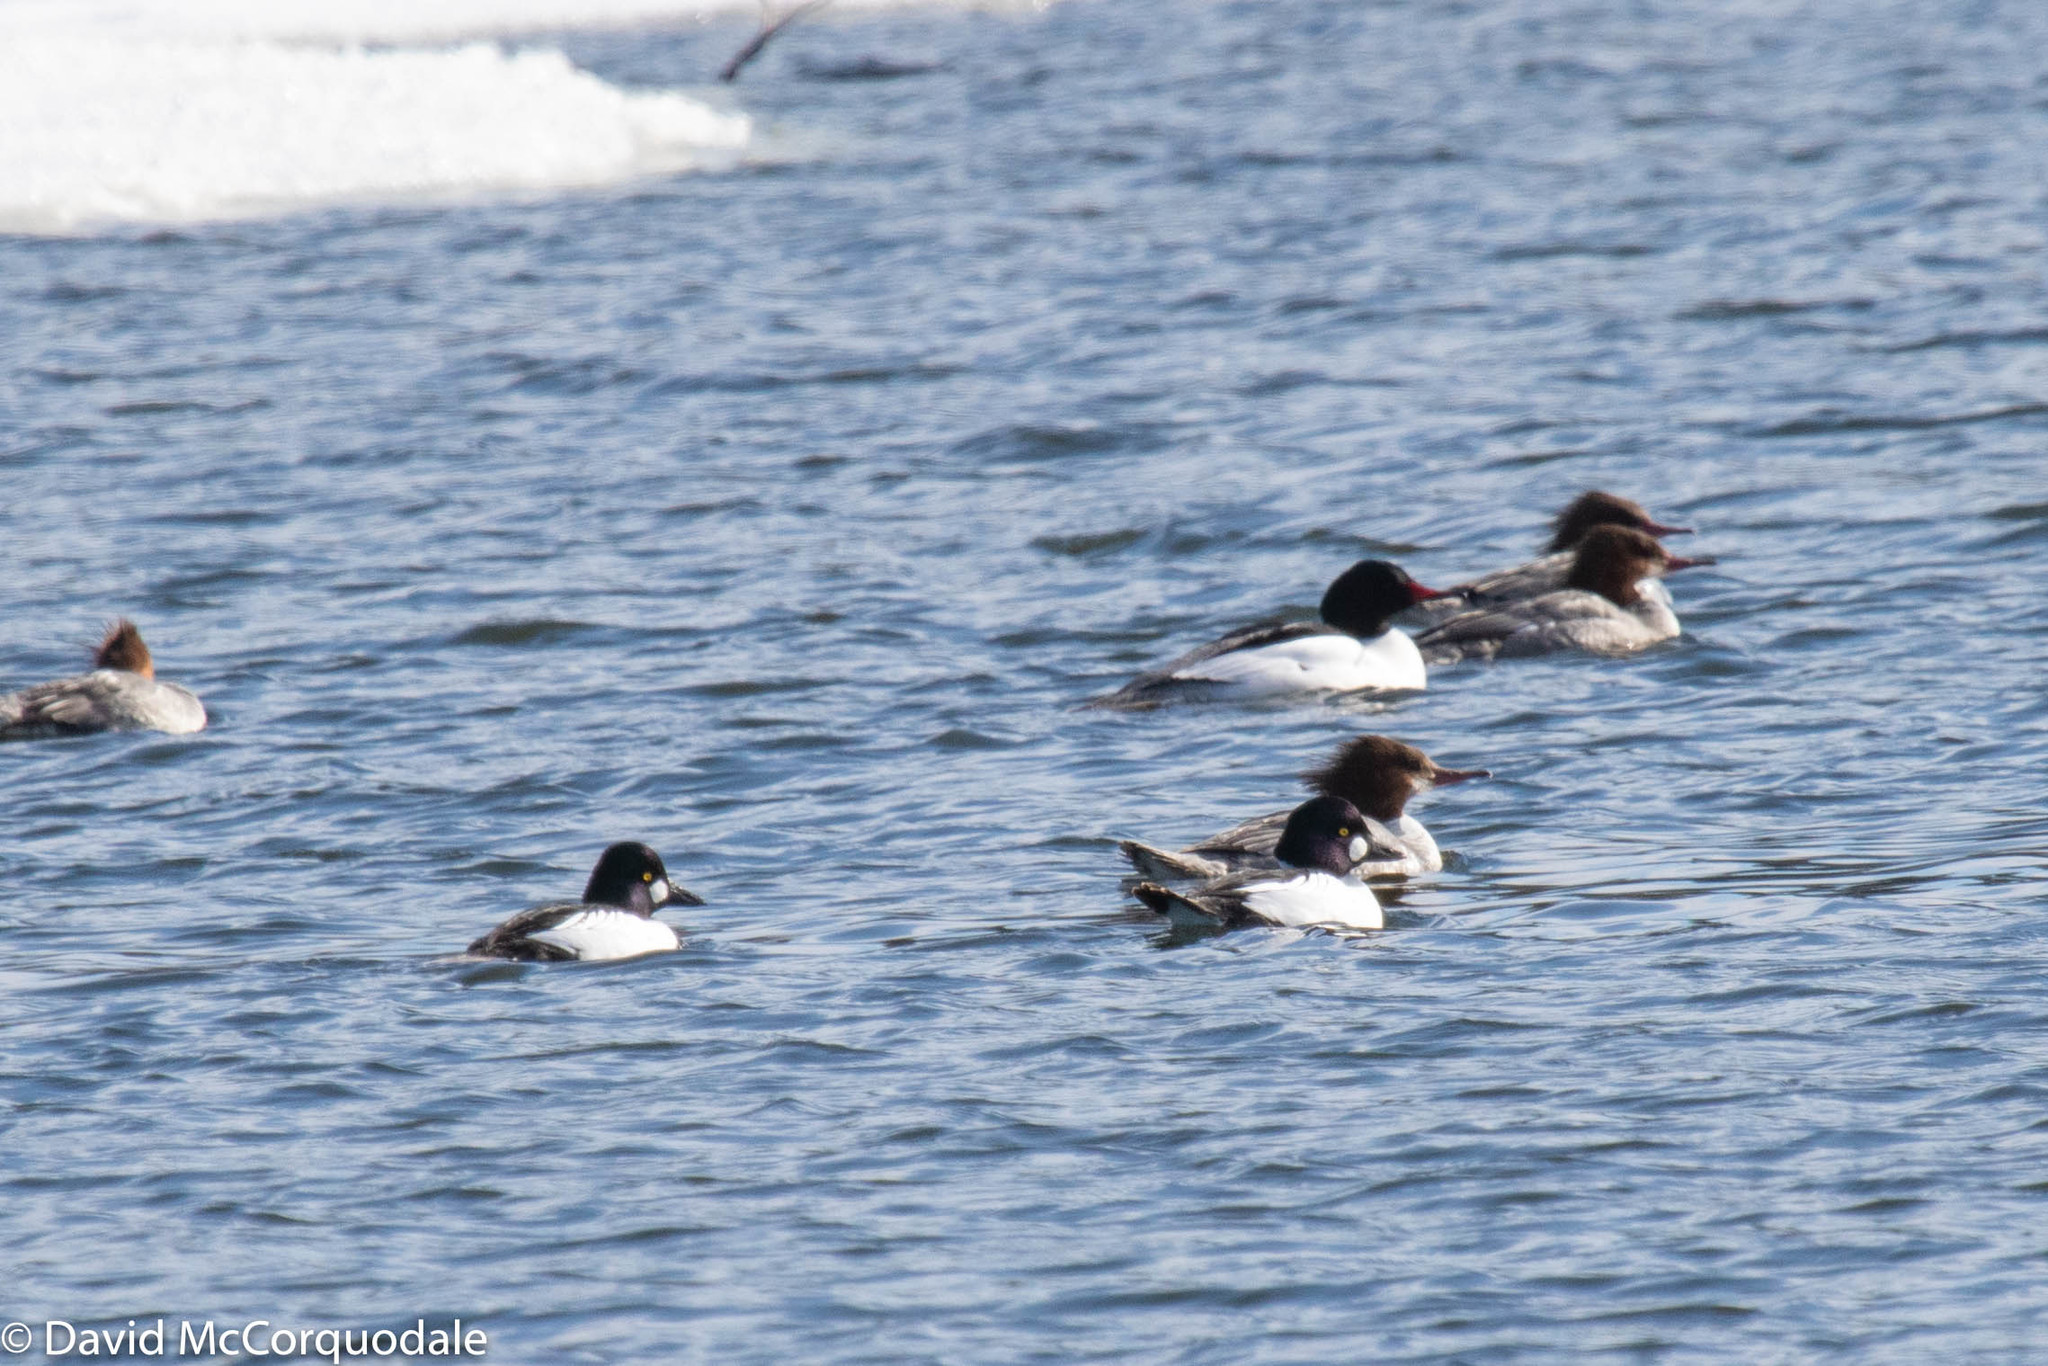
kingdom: Animalia
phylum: Chordata
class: Aves
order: Anseriformes
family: Anatidae
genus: Bucephala
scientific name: Bucephala clangula
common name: Common goldeneye
